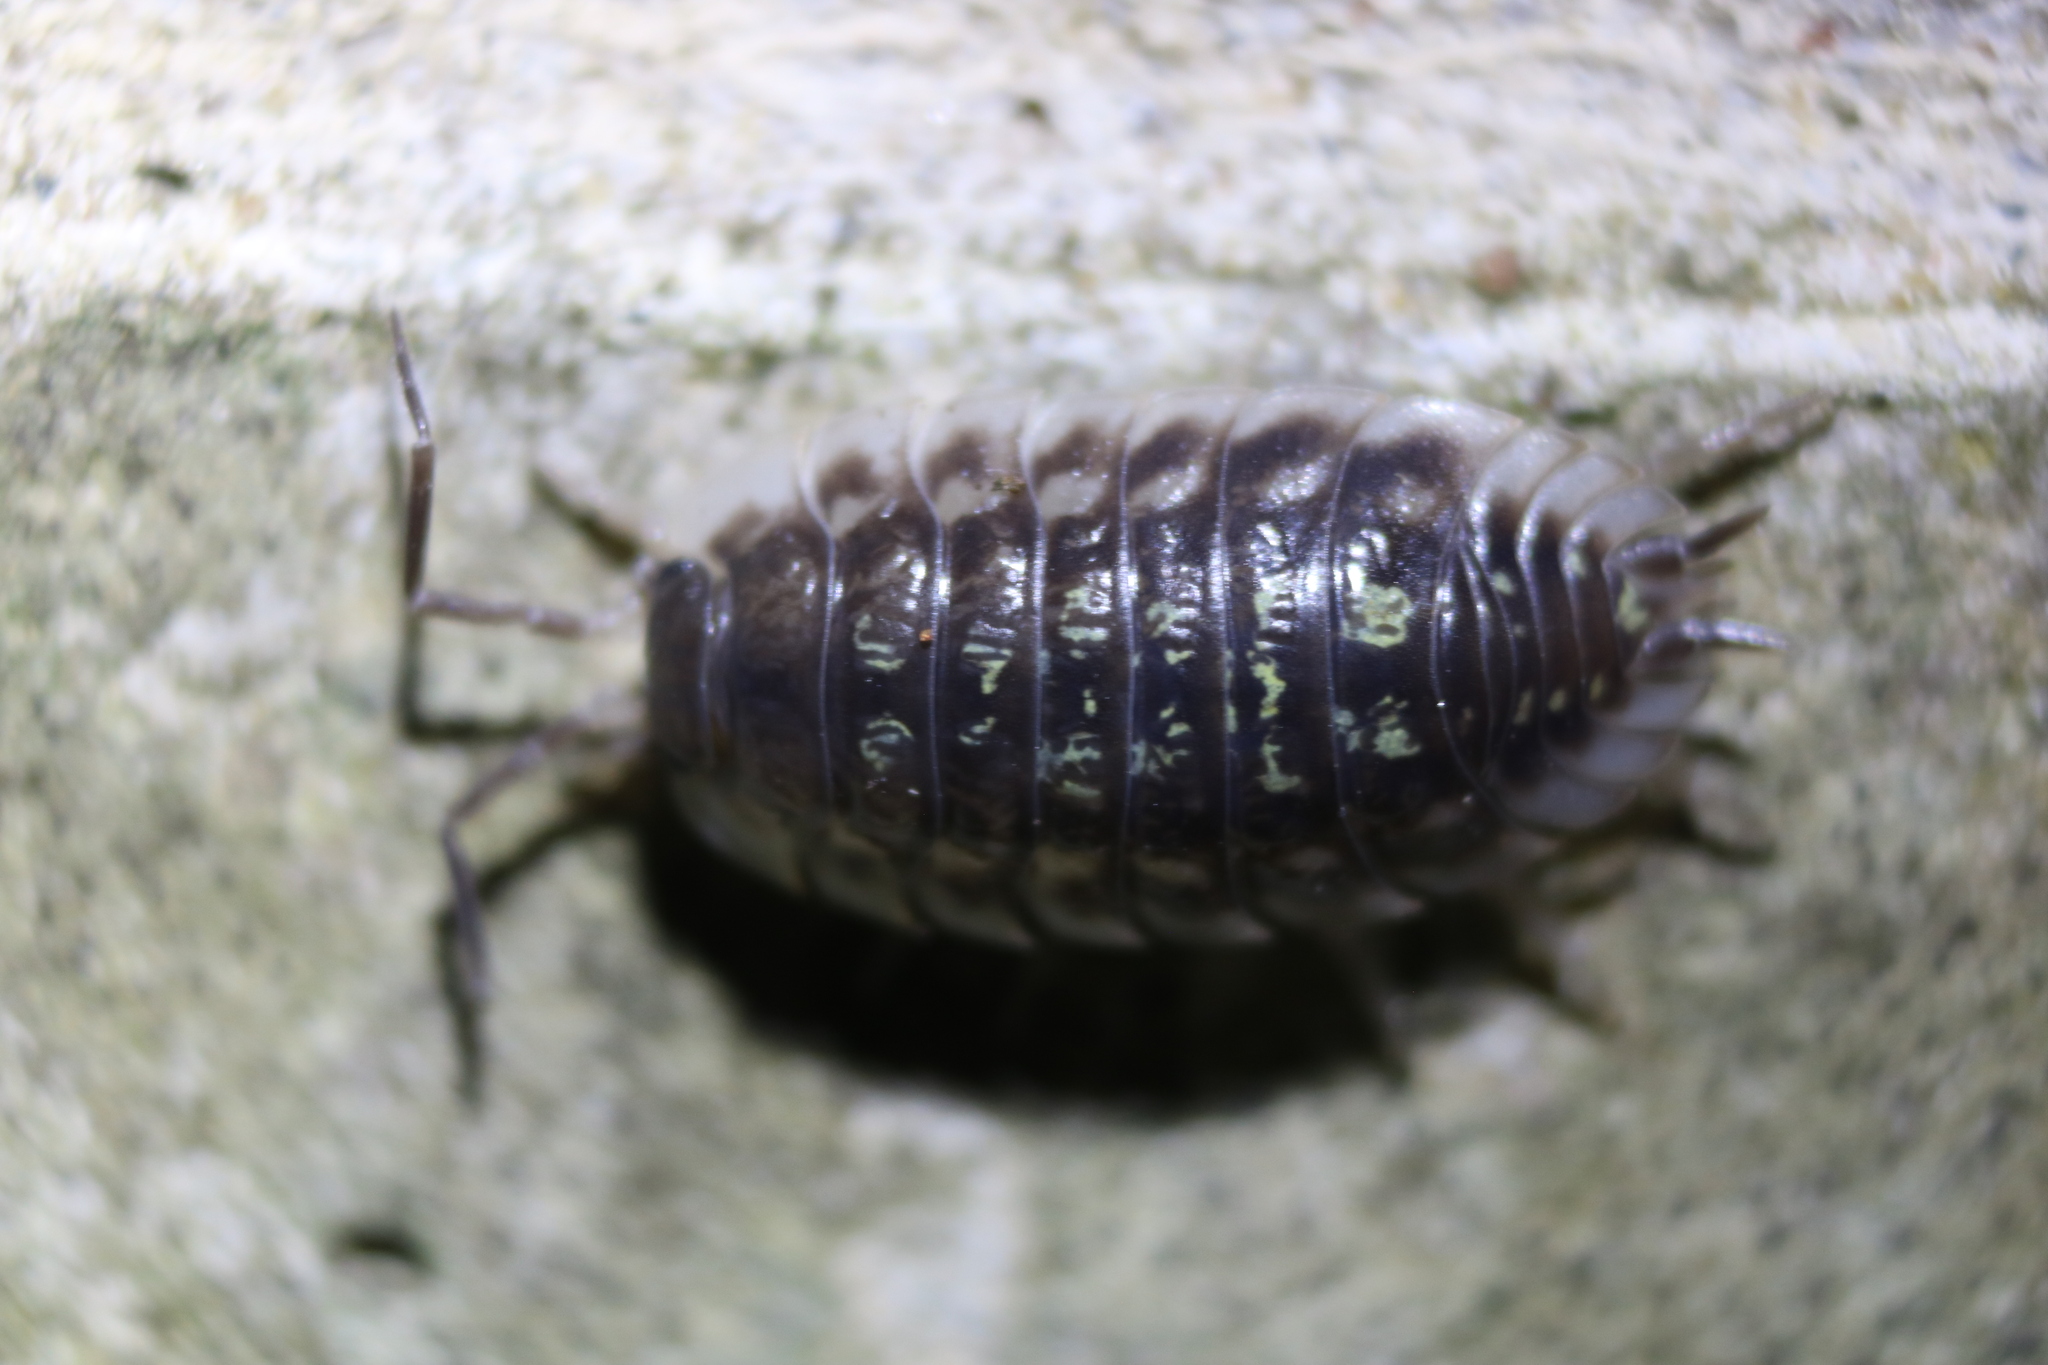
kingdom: Animalia
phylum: Arthropoda
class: Malacostraca
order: Isopoda
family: Oniscidae
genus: Oniscus
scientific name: Oniscus asellus
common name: Common shiny woodlouse
